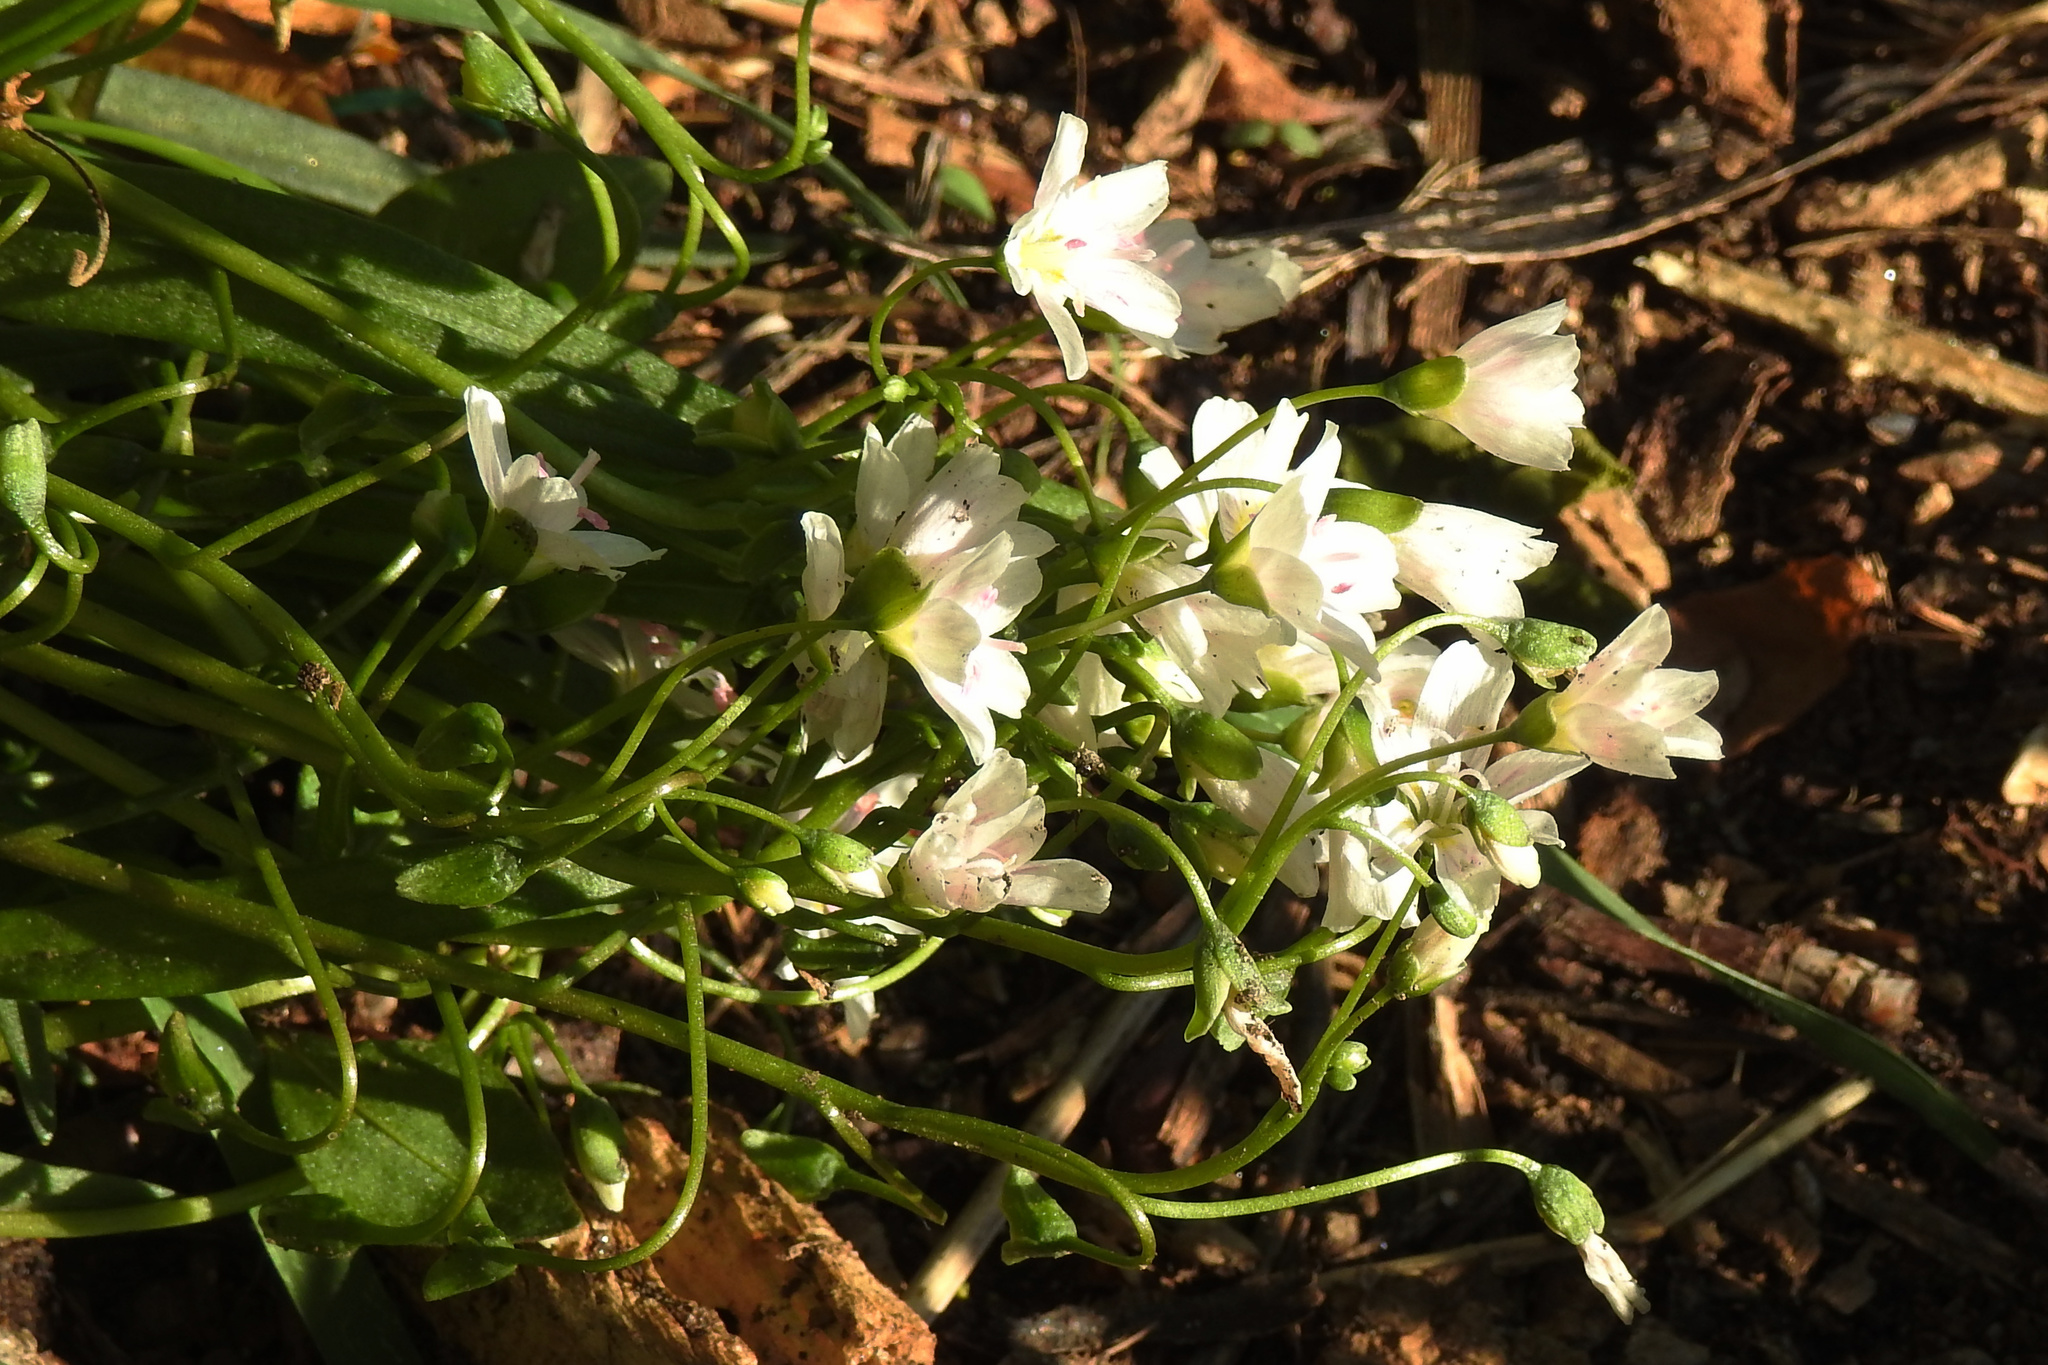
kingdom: Plantae
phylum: Tracheophyta
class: Magnoliopsida
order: Caryophyllales
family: Montiaceae
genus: Claytonia
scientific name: Claytonia virginica
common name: Virginia springbeauty
